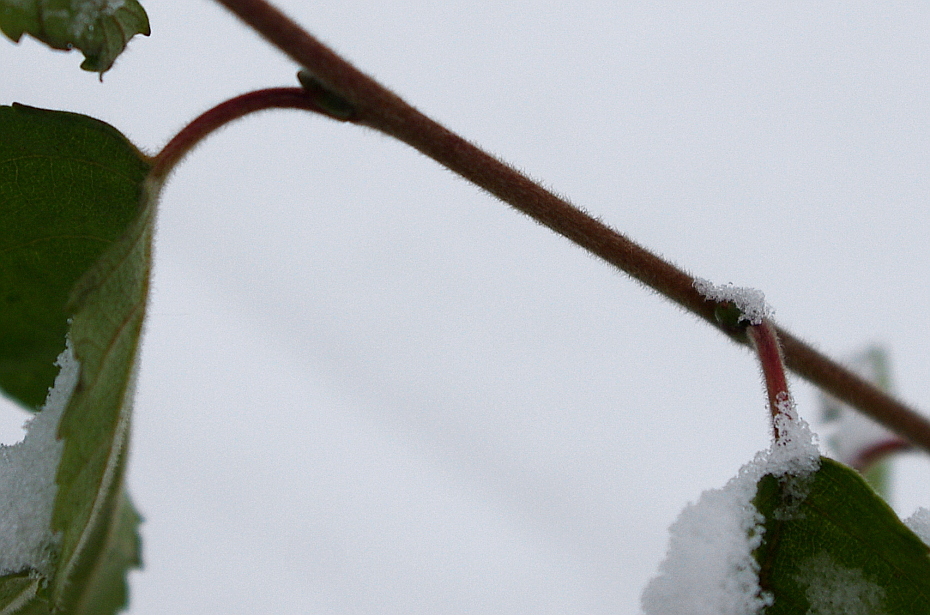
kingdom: Plantae
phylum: Tracheophyta
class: Magnoliopsida
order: Fagales
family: Betulaceae
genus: Betula
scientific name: Betula pubescens
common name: Downy birch
